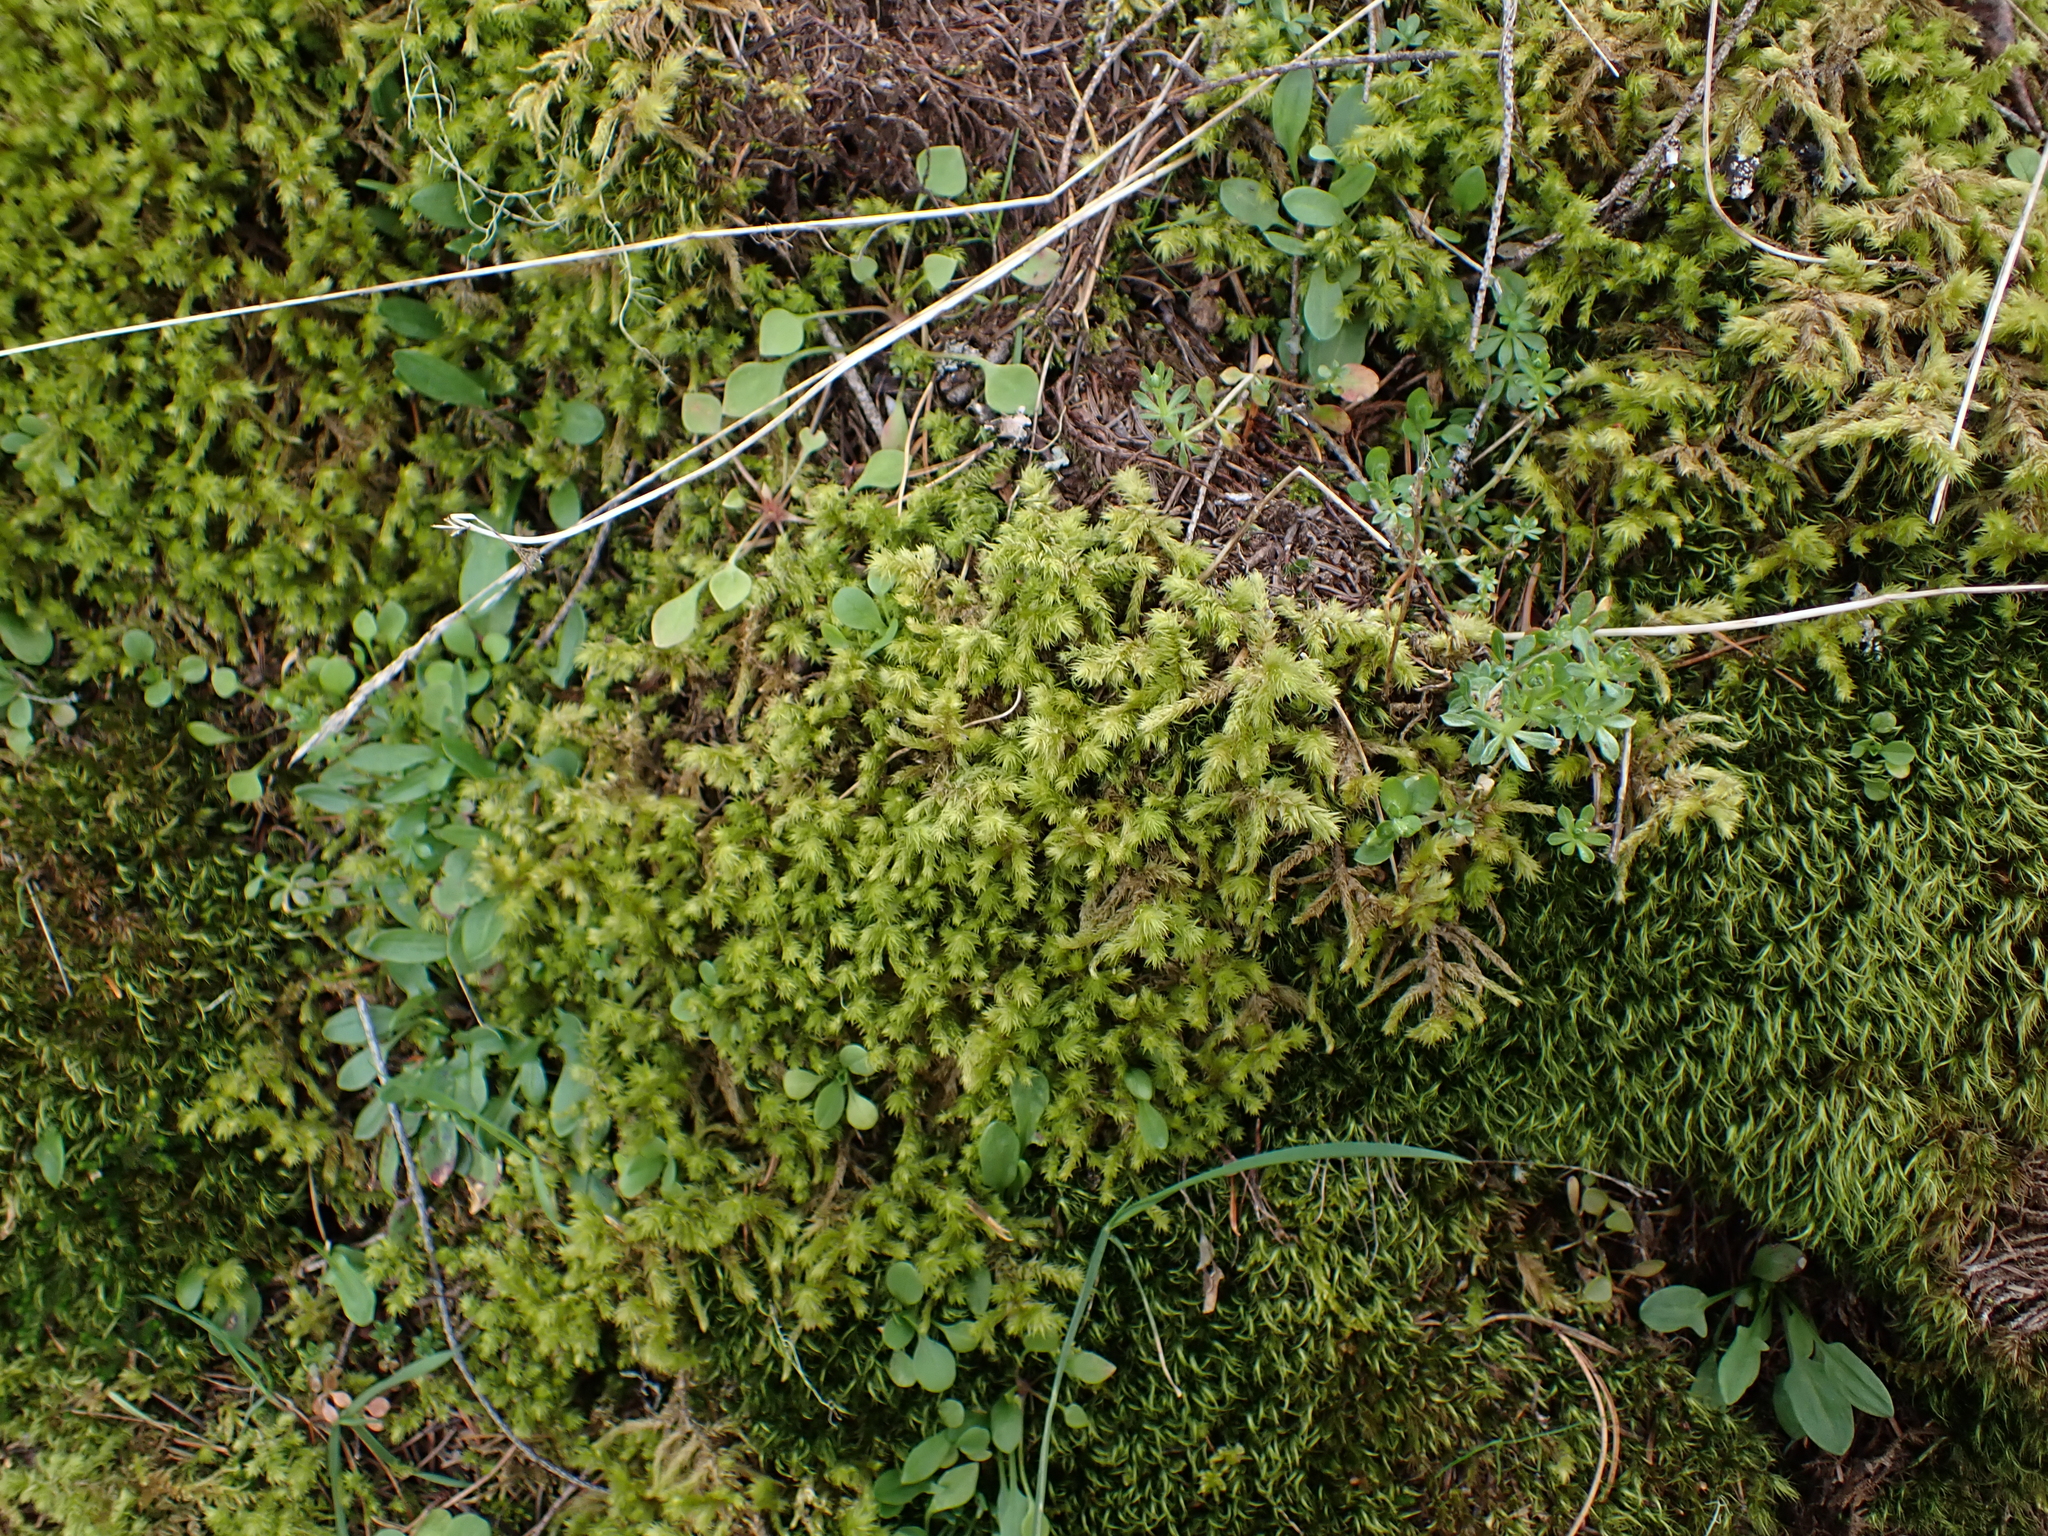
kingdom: Plantae
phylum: Bryophyta
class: Bryopsida
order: Hypnales
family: Hylocomiaceae
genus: Hylocomiadelphus
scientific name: Hylocomiadelphus triquetrus
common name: Rough goose neck moss
